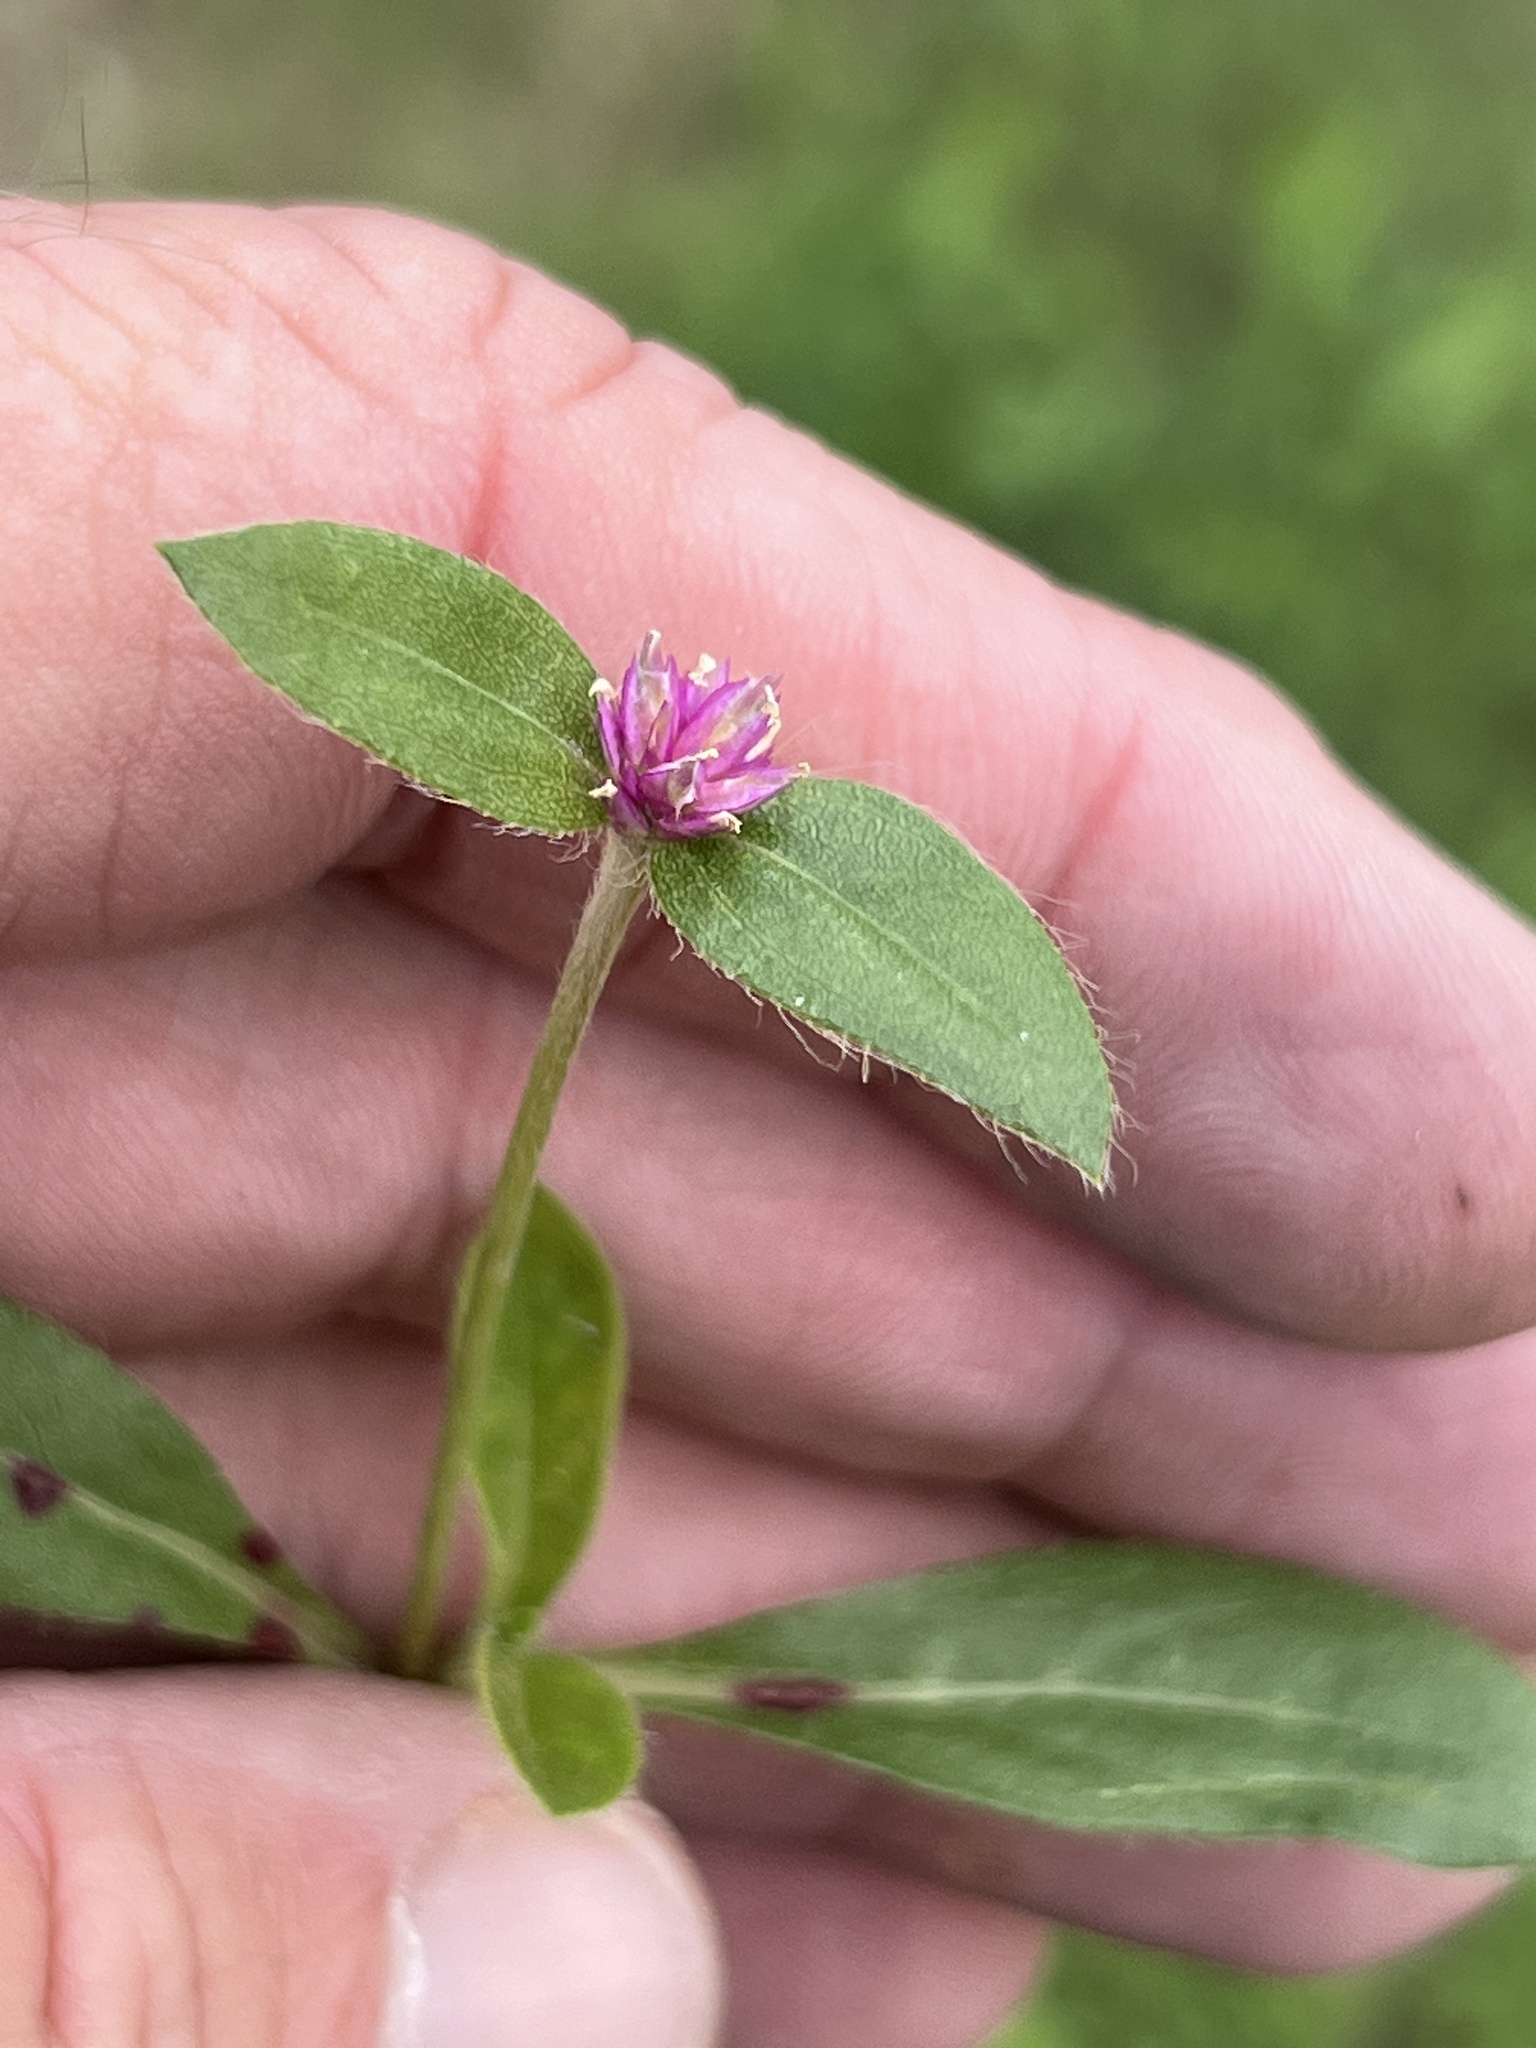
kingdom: Plantae
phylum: Tracheophyta
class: Magnoliopsida
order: Caryophyllales
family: Amaranthaceae
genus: Gomphrena
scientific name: Gomphrena serrata
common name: Arrasa con todo
